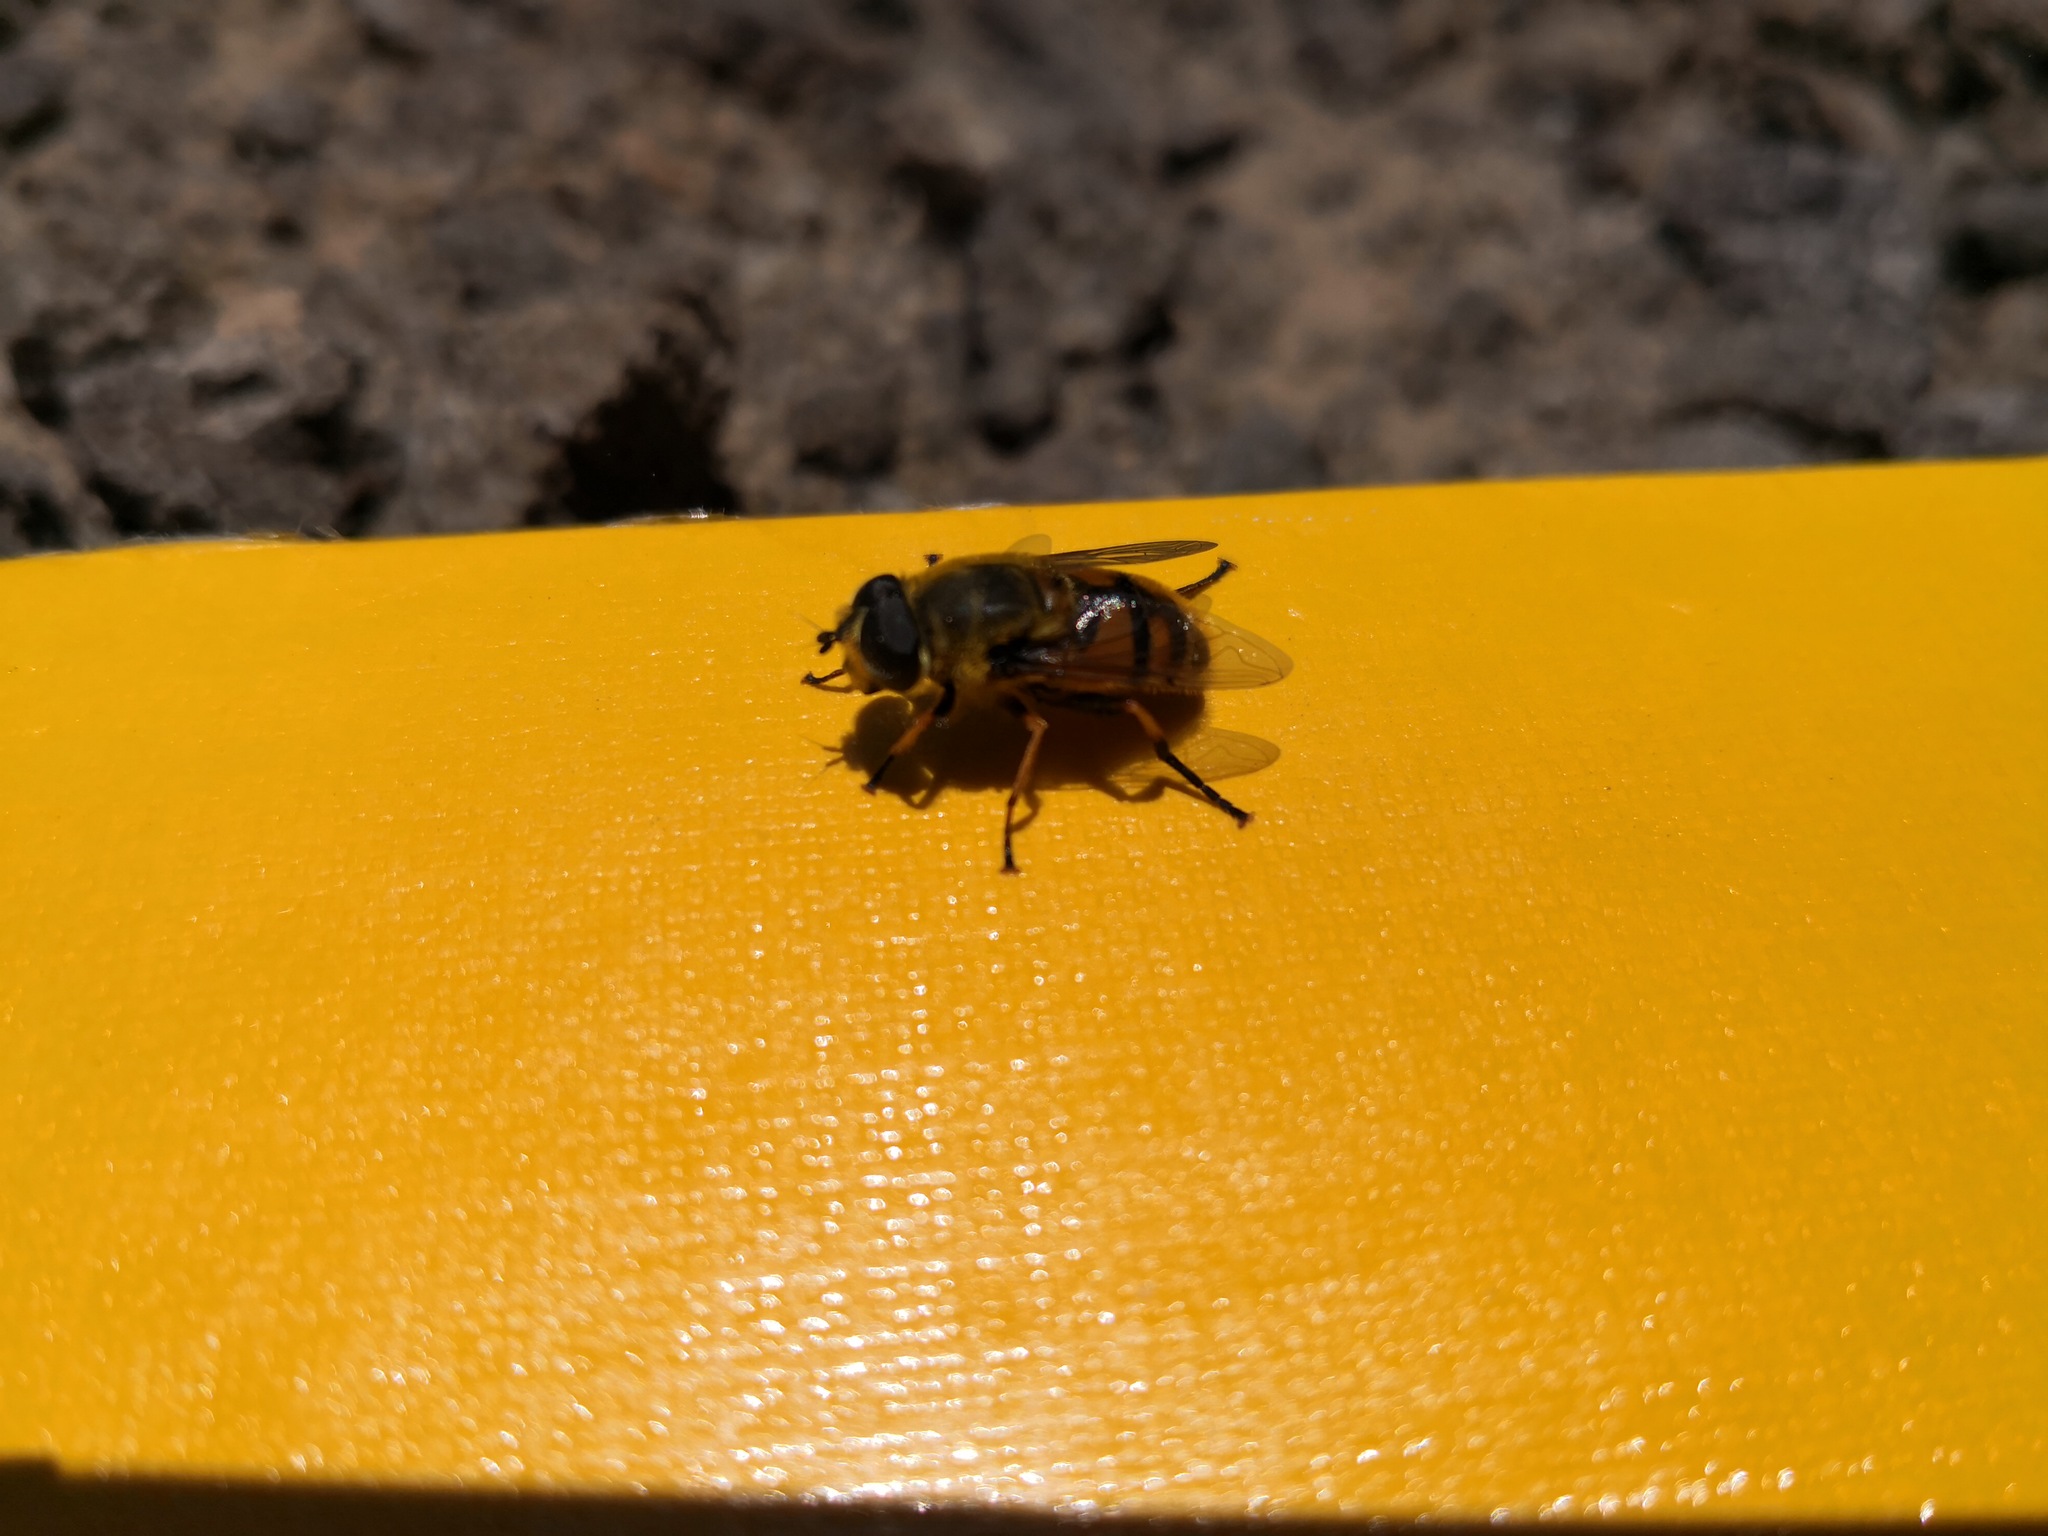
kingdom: Animalia
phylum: Arthropoda
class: Insecta
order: Diptera
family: Syrphidae
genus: Myathropa
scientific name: Myathropa florea
